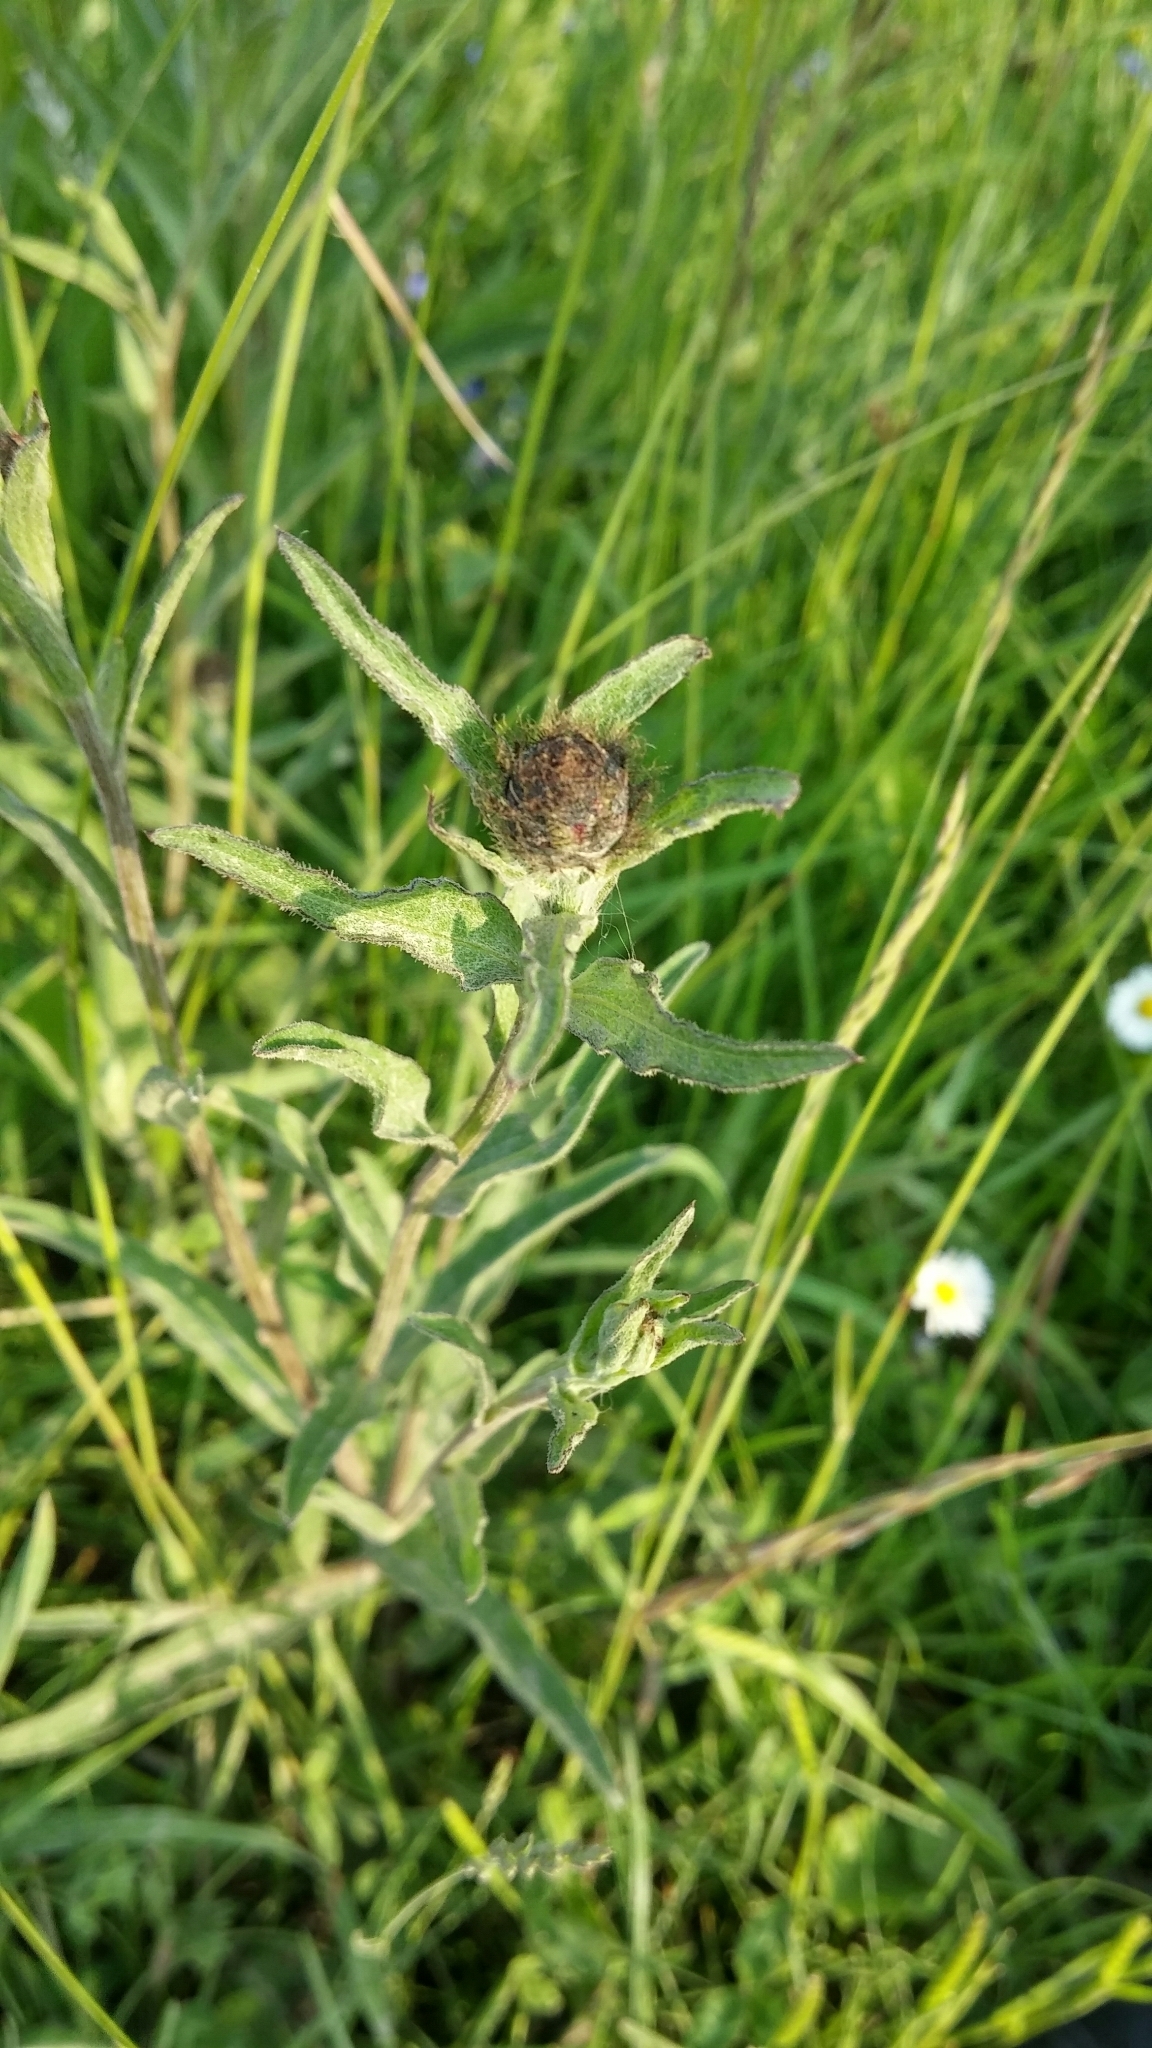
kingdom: Plantae
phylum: Tracheophyta
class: Magnoliopsida
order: Asterales
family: Asteraceae
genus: Centaurea
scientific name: Centaurea nigra
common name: Lesser knapweed
